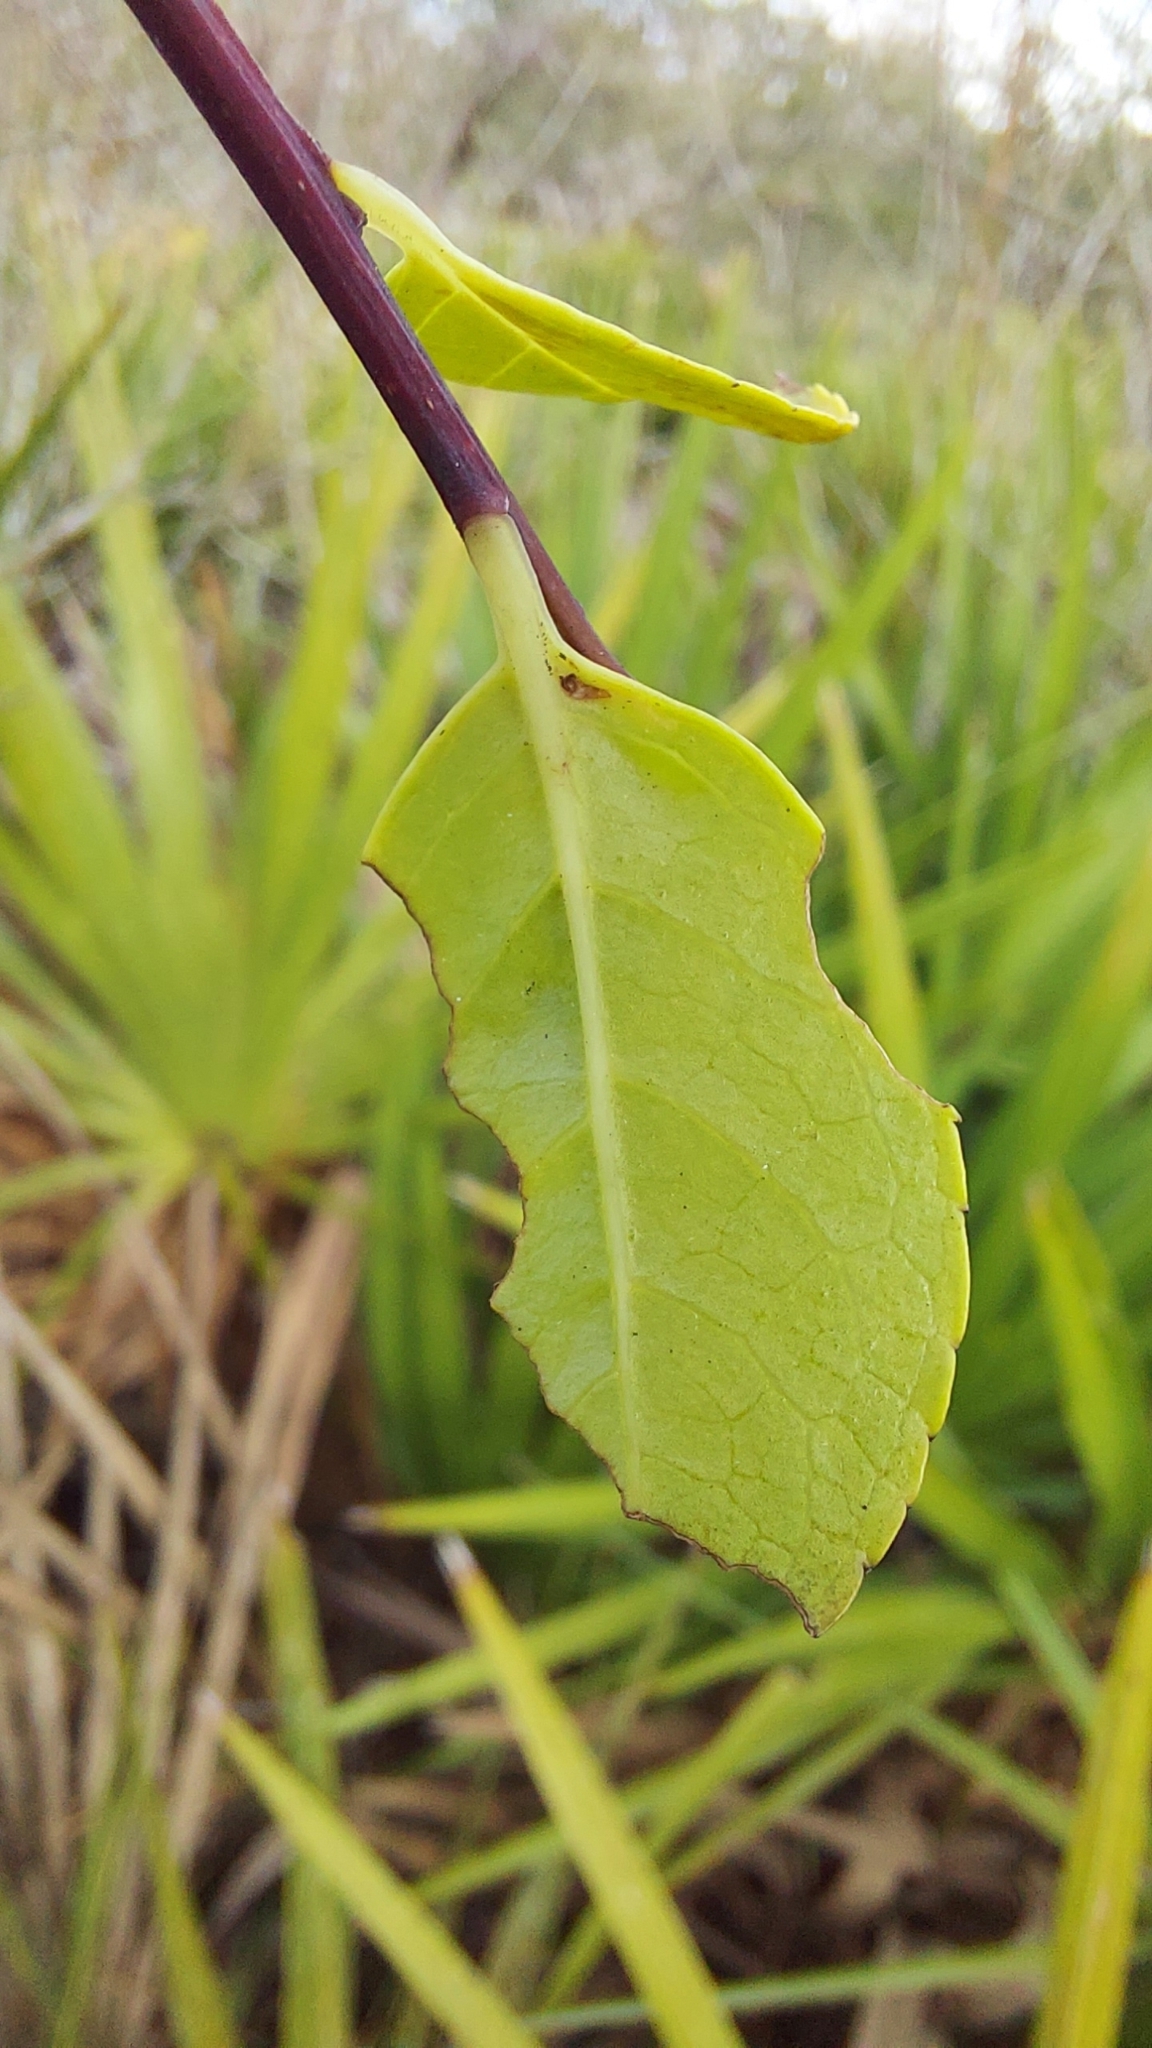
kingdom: Plantae
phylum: Tracheophyta
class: Magnoliopsida
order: Aquifoliales
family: Aquifoliaceae
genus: Ilex
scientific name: Ilex ambigua
